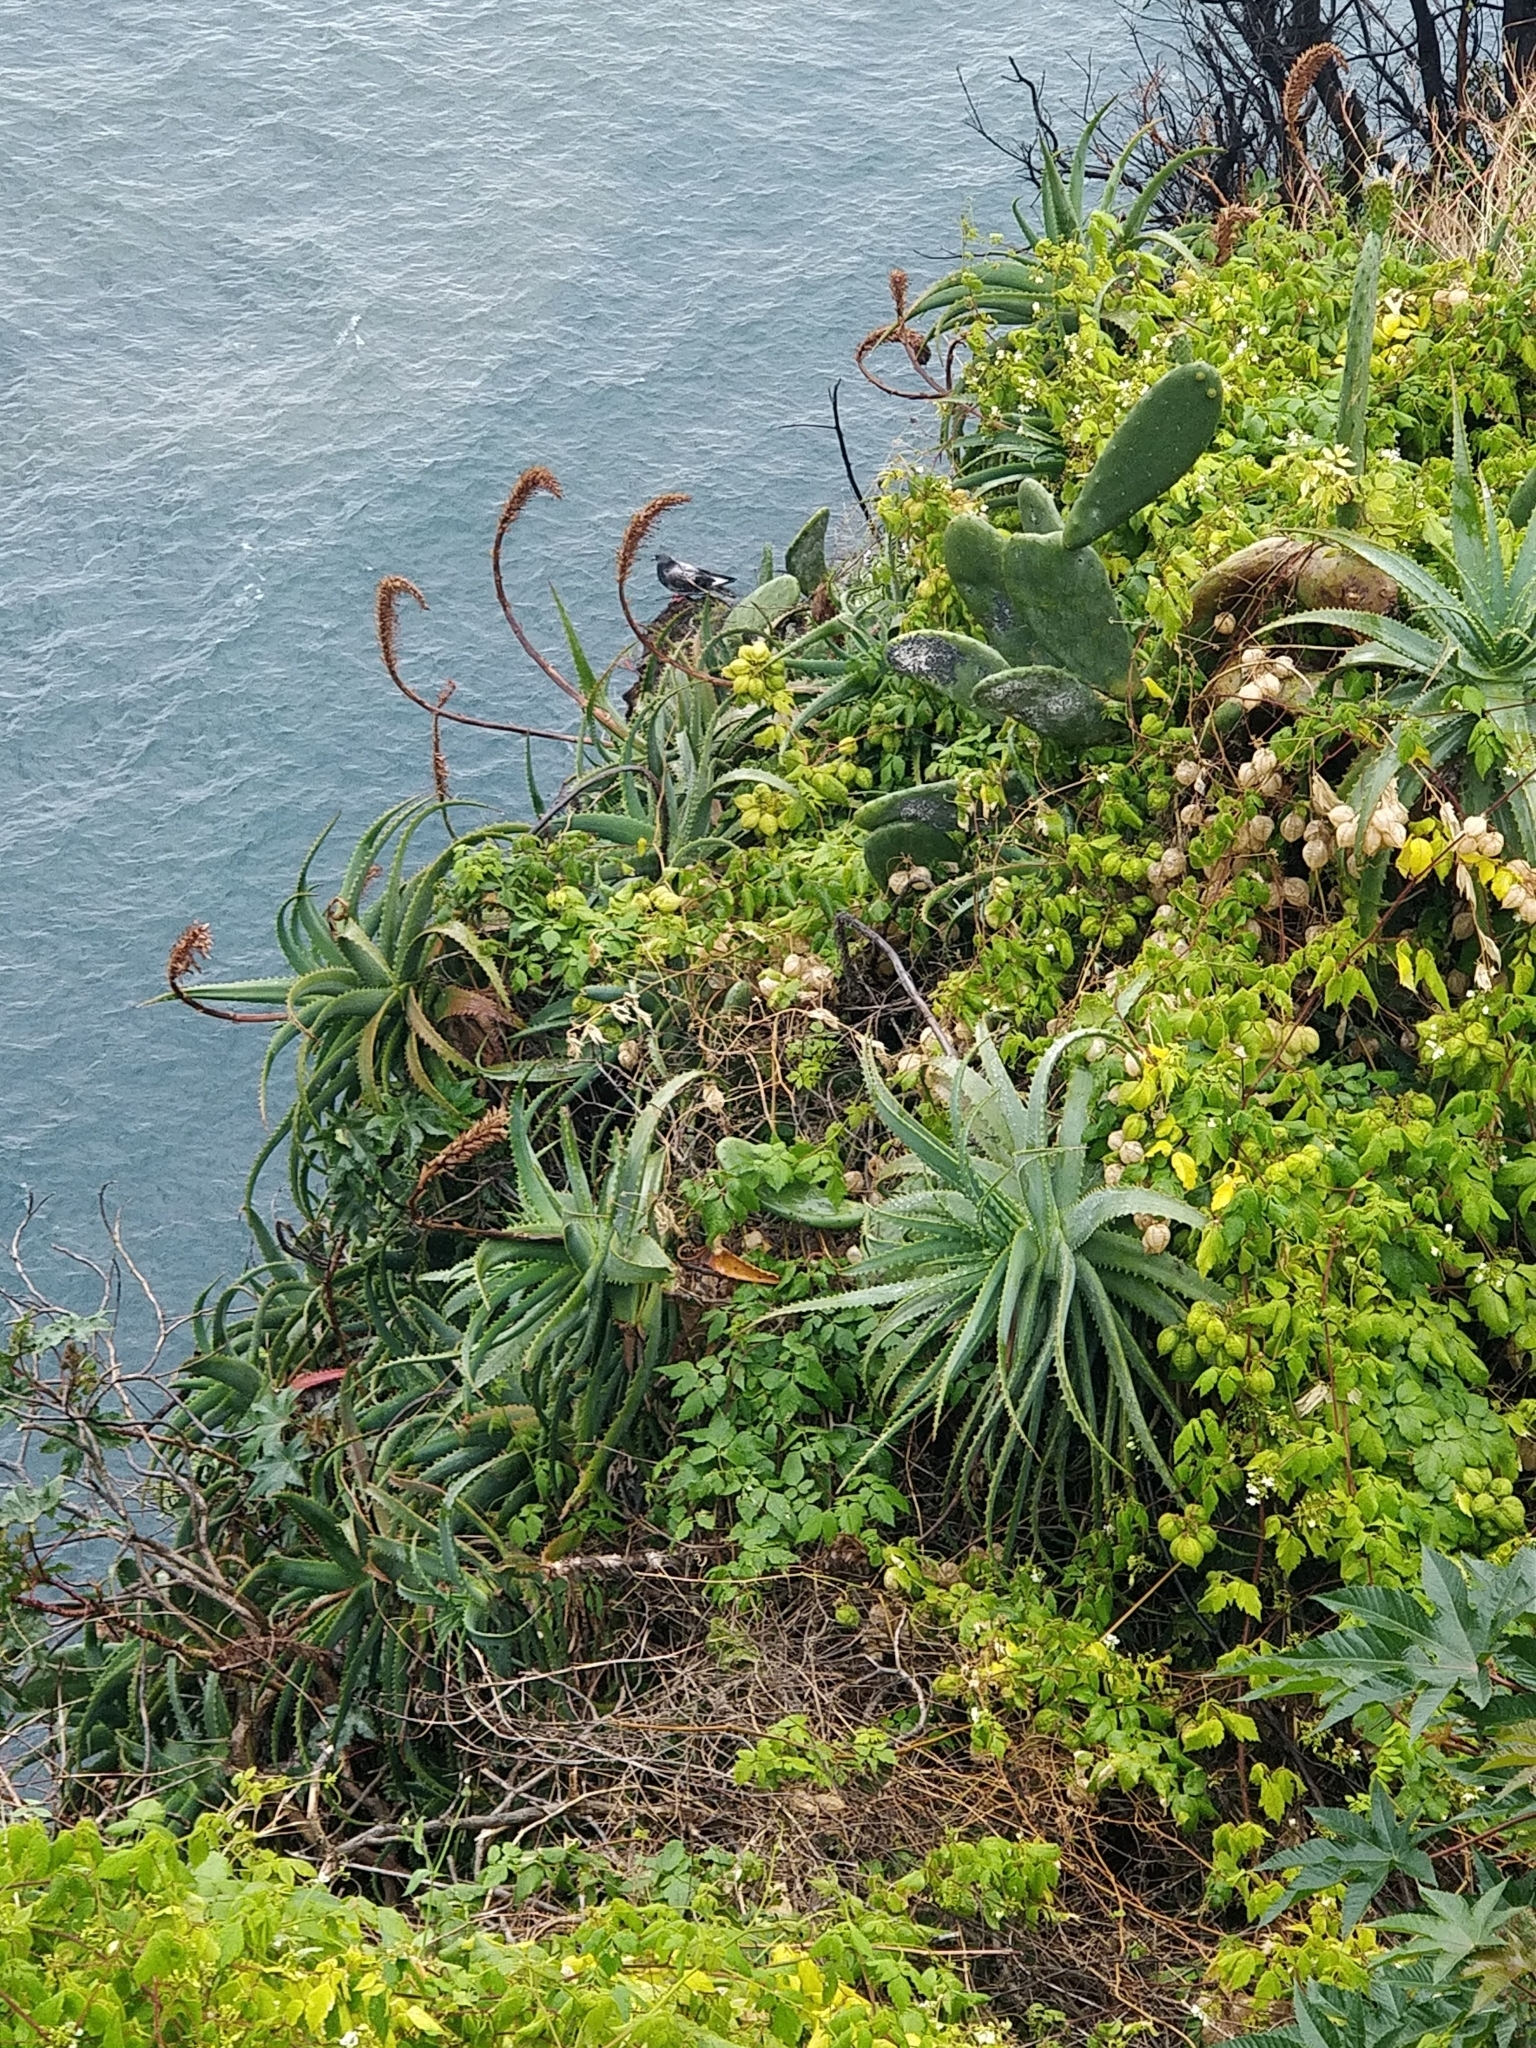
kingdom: Plantae
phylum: Tracheophyta
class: Liliopsida
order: Asparagales
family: Asphodelaceae
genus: Aloe
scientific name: Aloe arborescens
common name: Candelabra aloe
